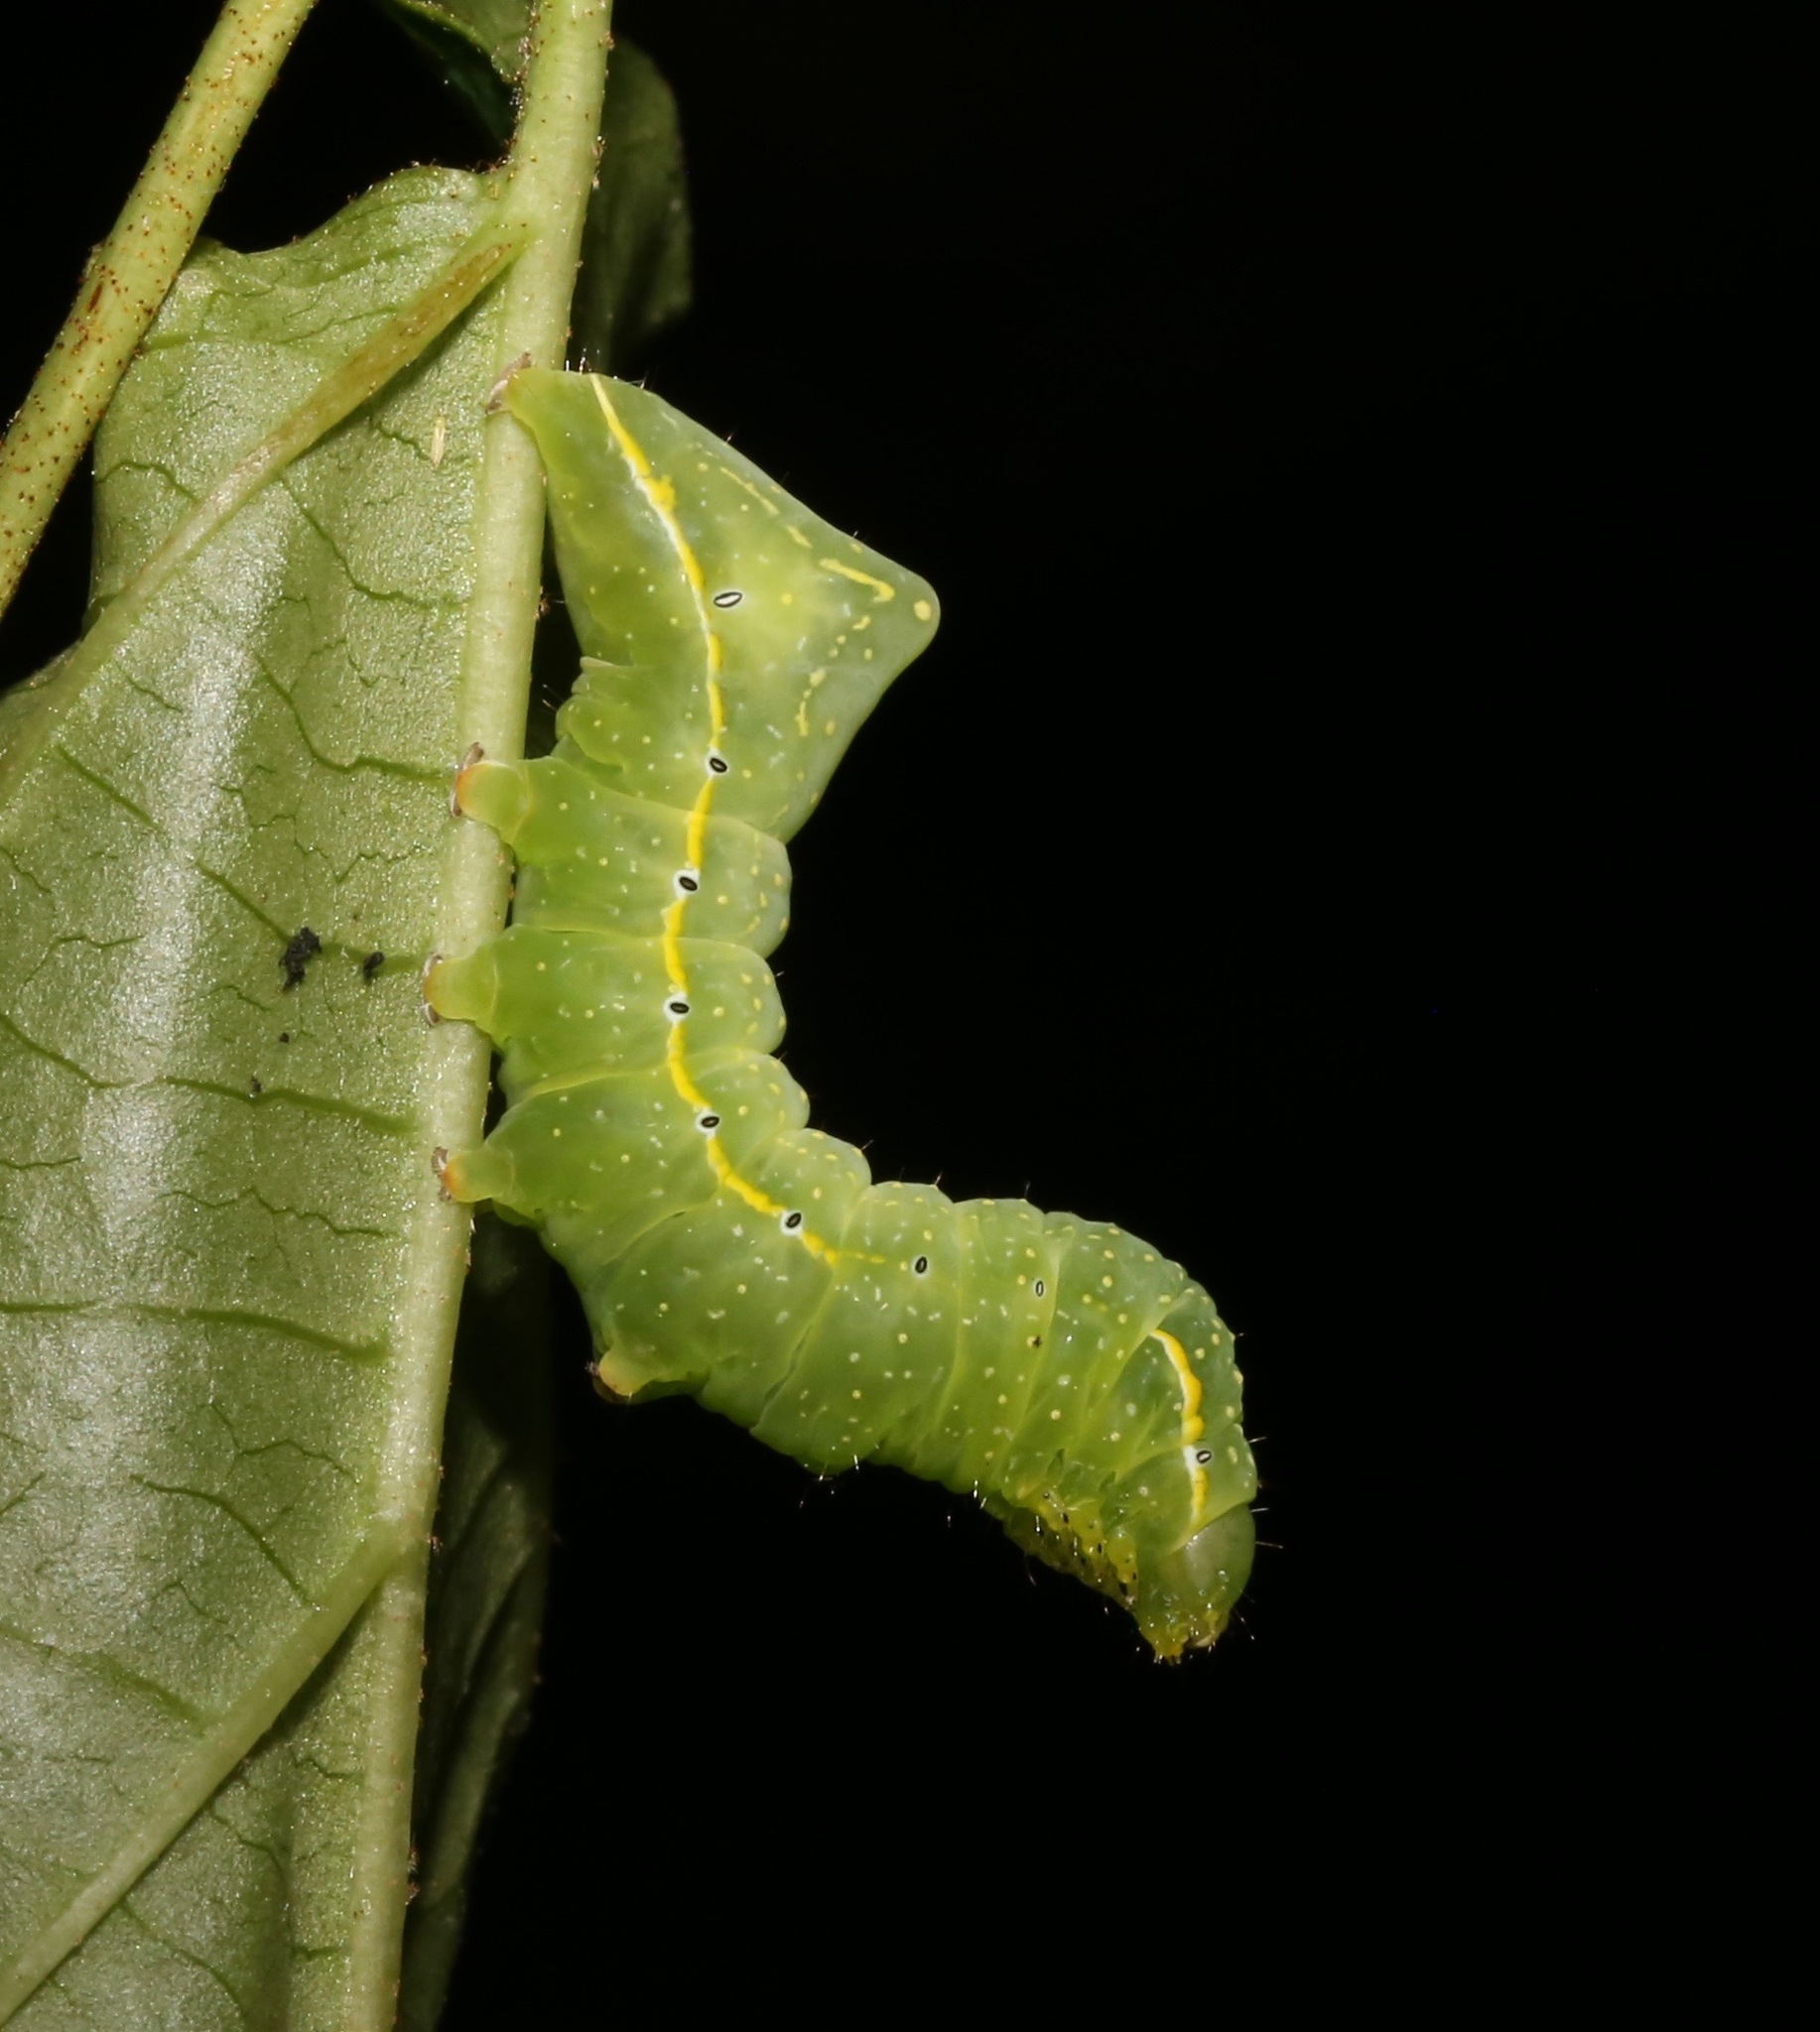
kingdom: Animalia
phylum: Arthropoda
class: Insecta
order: Lepidoptera
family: Noctuidae
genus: Amphipyra
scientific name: Amphipyra pyramidoides
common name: American copper underwing
